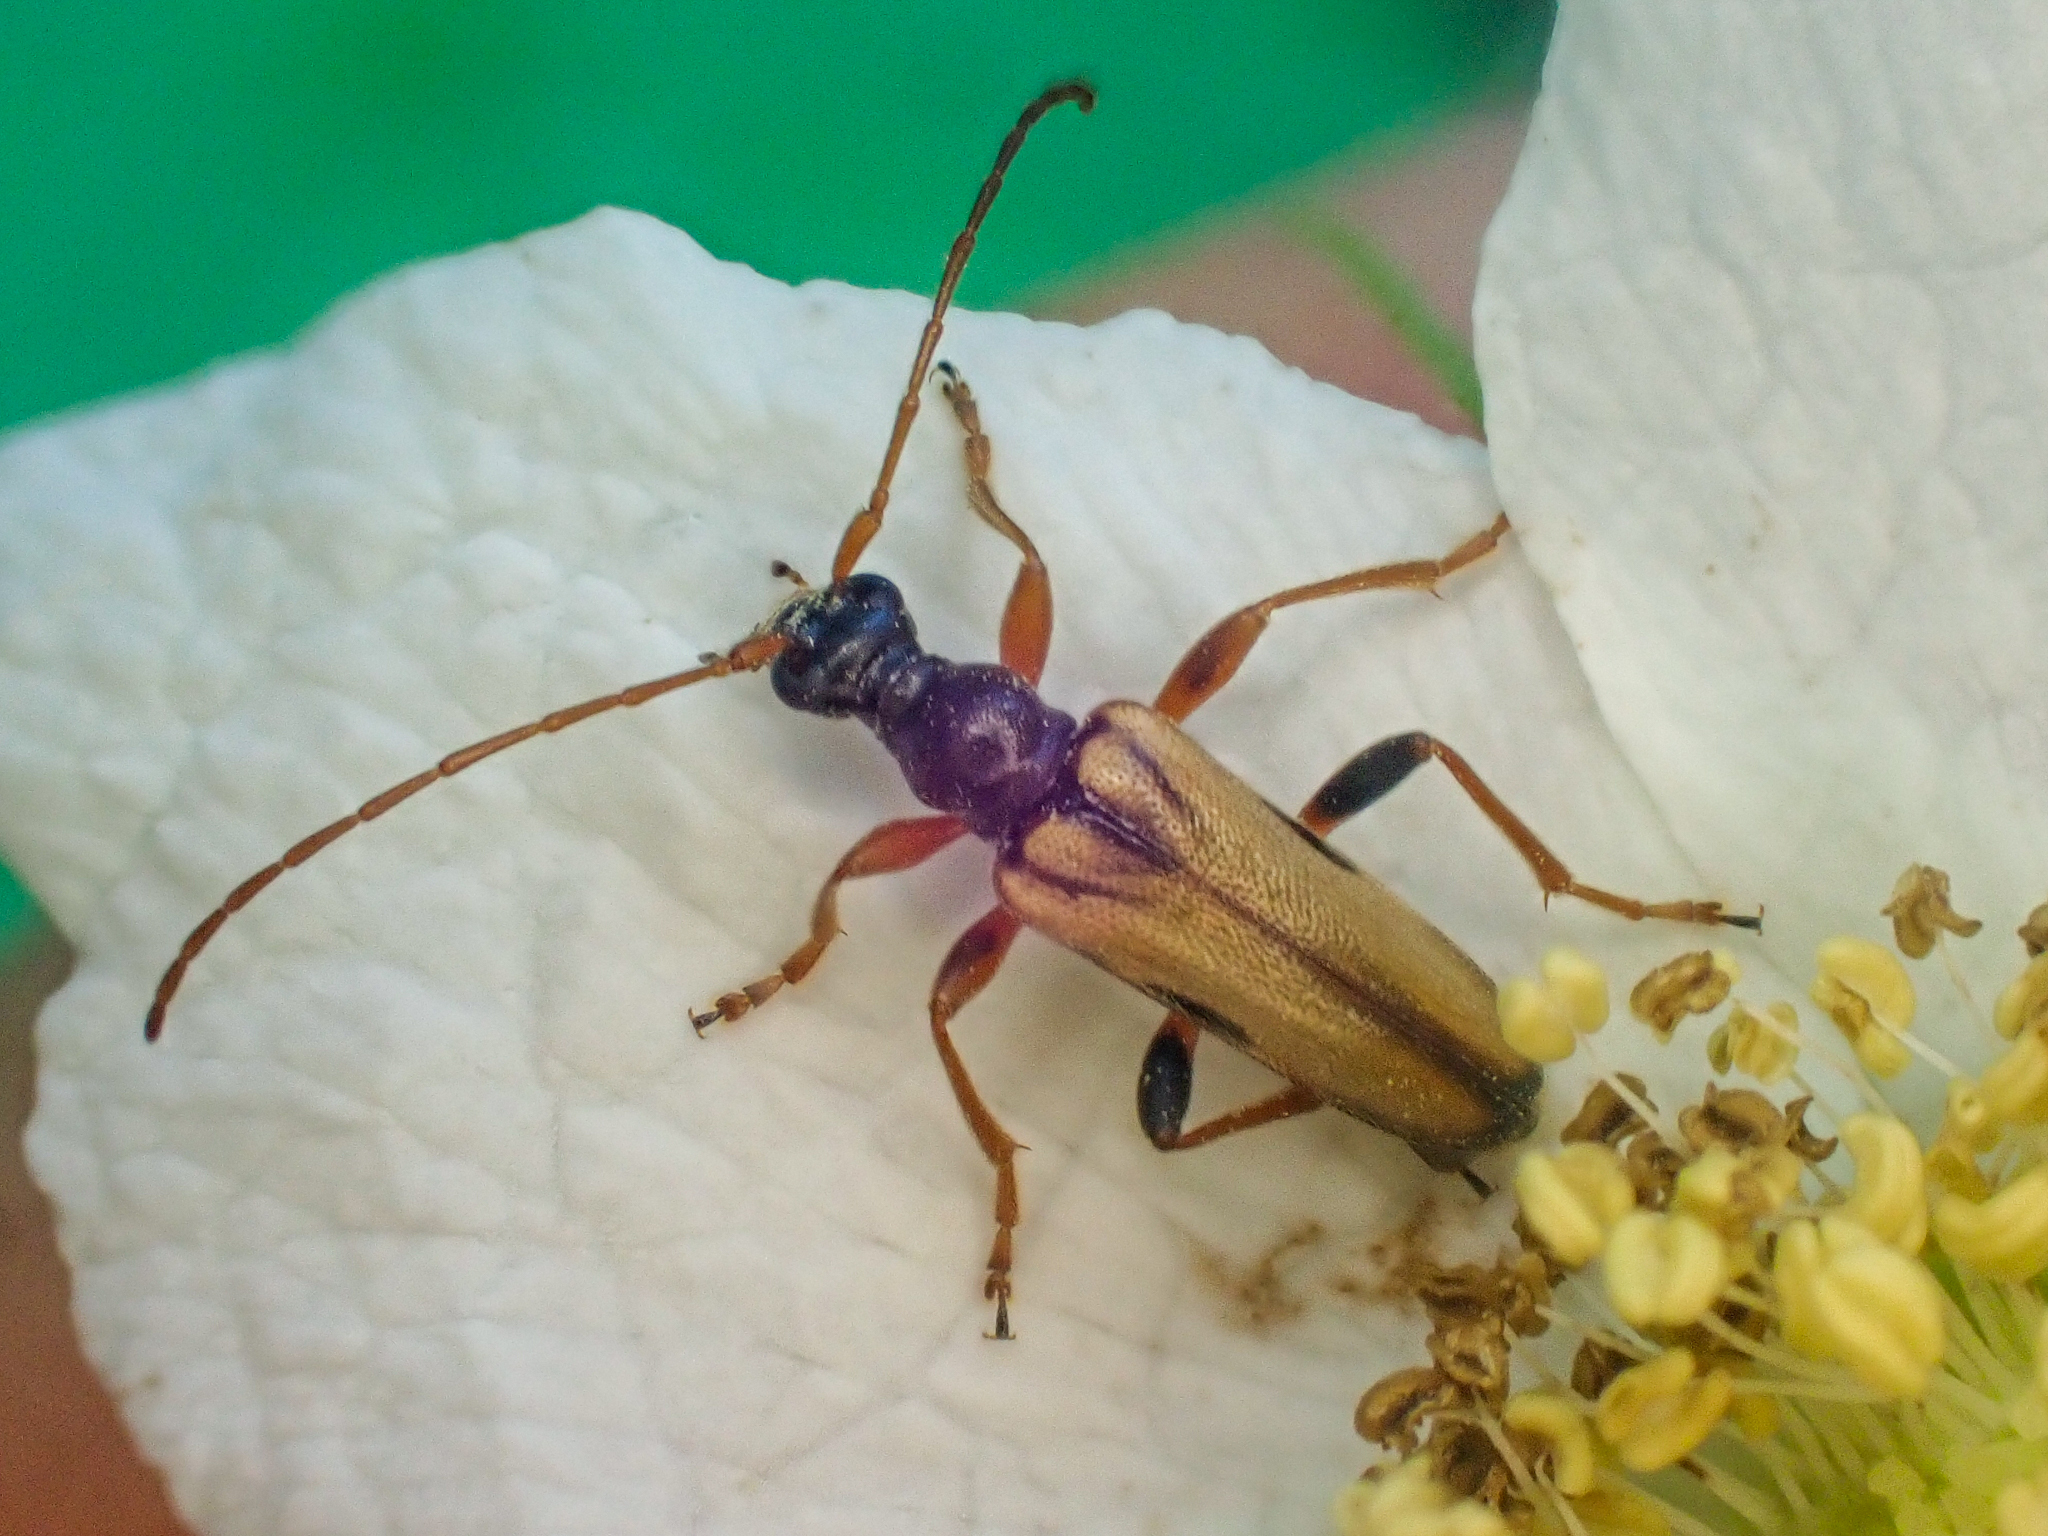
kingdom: Animalia
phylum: Arthropoda
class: Insecta
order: Coleoptera
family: Cerambycidae
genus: Pidonia
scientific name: Pidonia scripta
